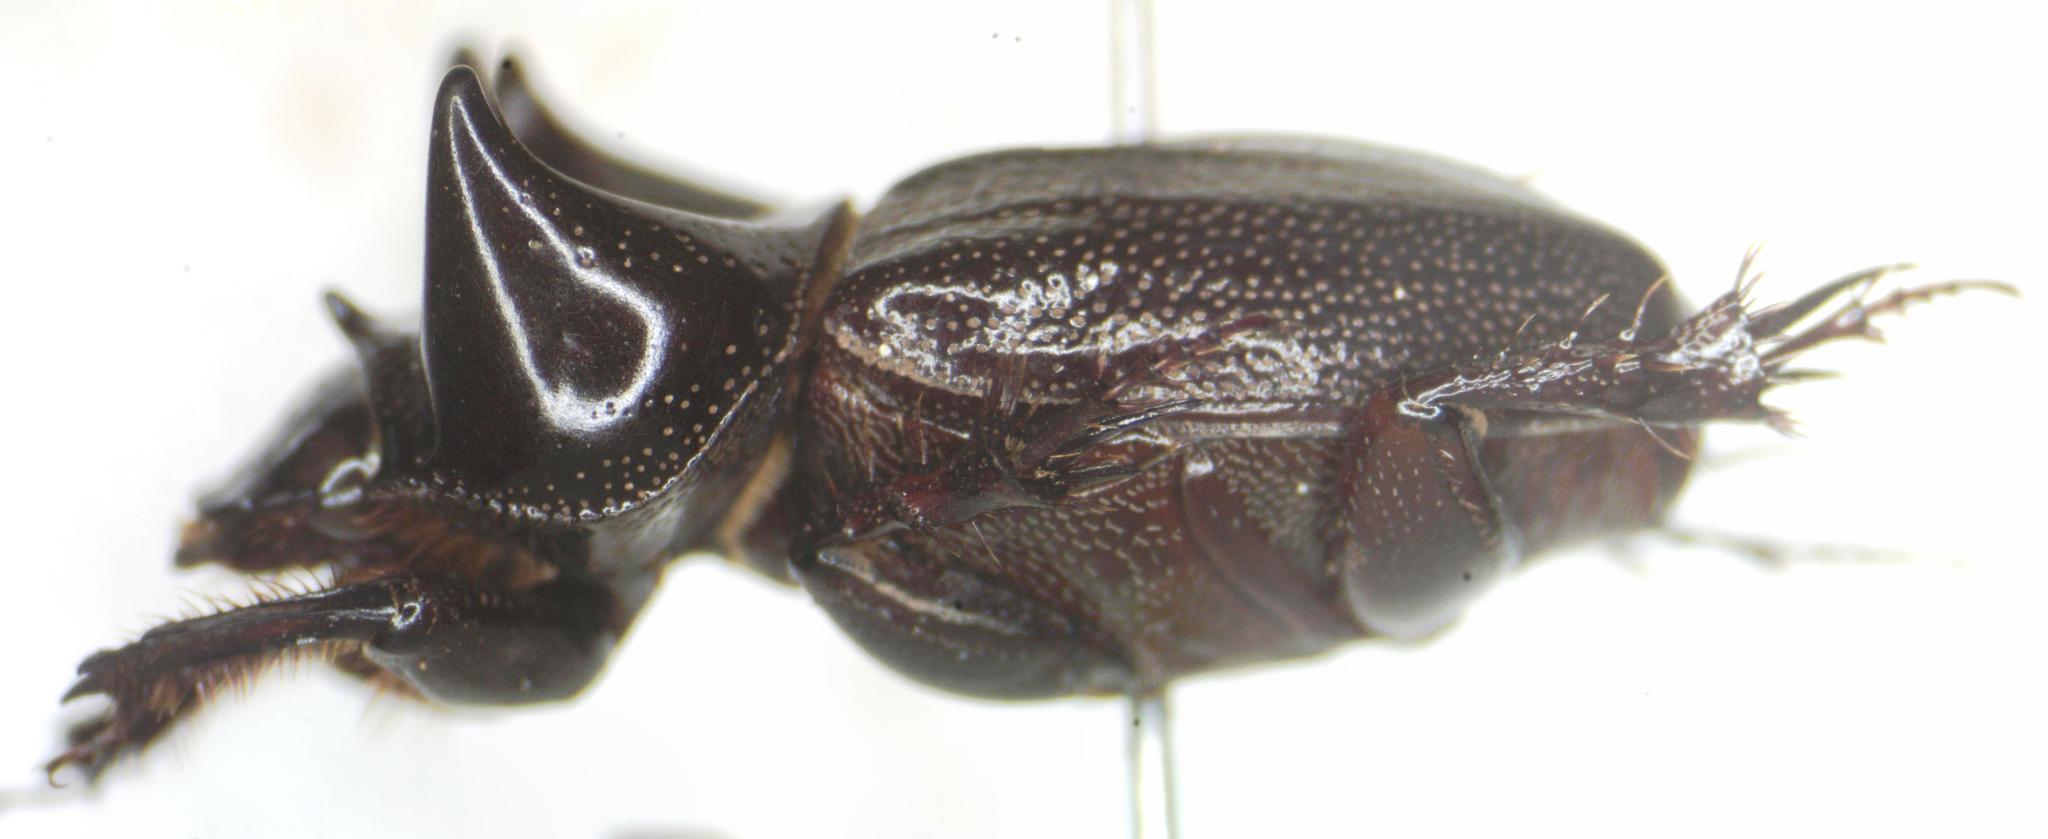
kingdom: Animalia
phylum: Arthropoda
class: Insecta
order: Coleoptera
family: Scarabaeidae
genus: Aegidium
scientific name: Aegidium cribratum
